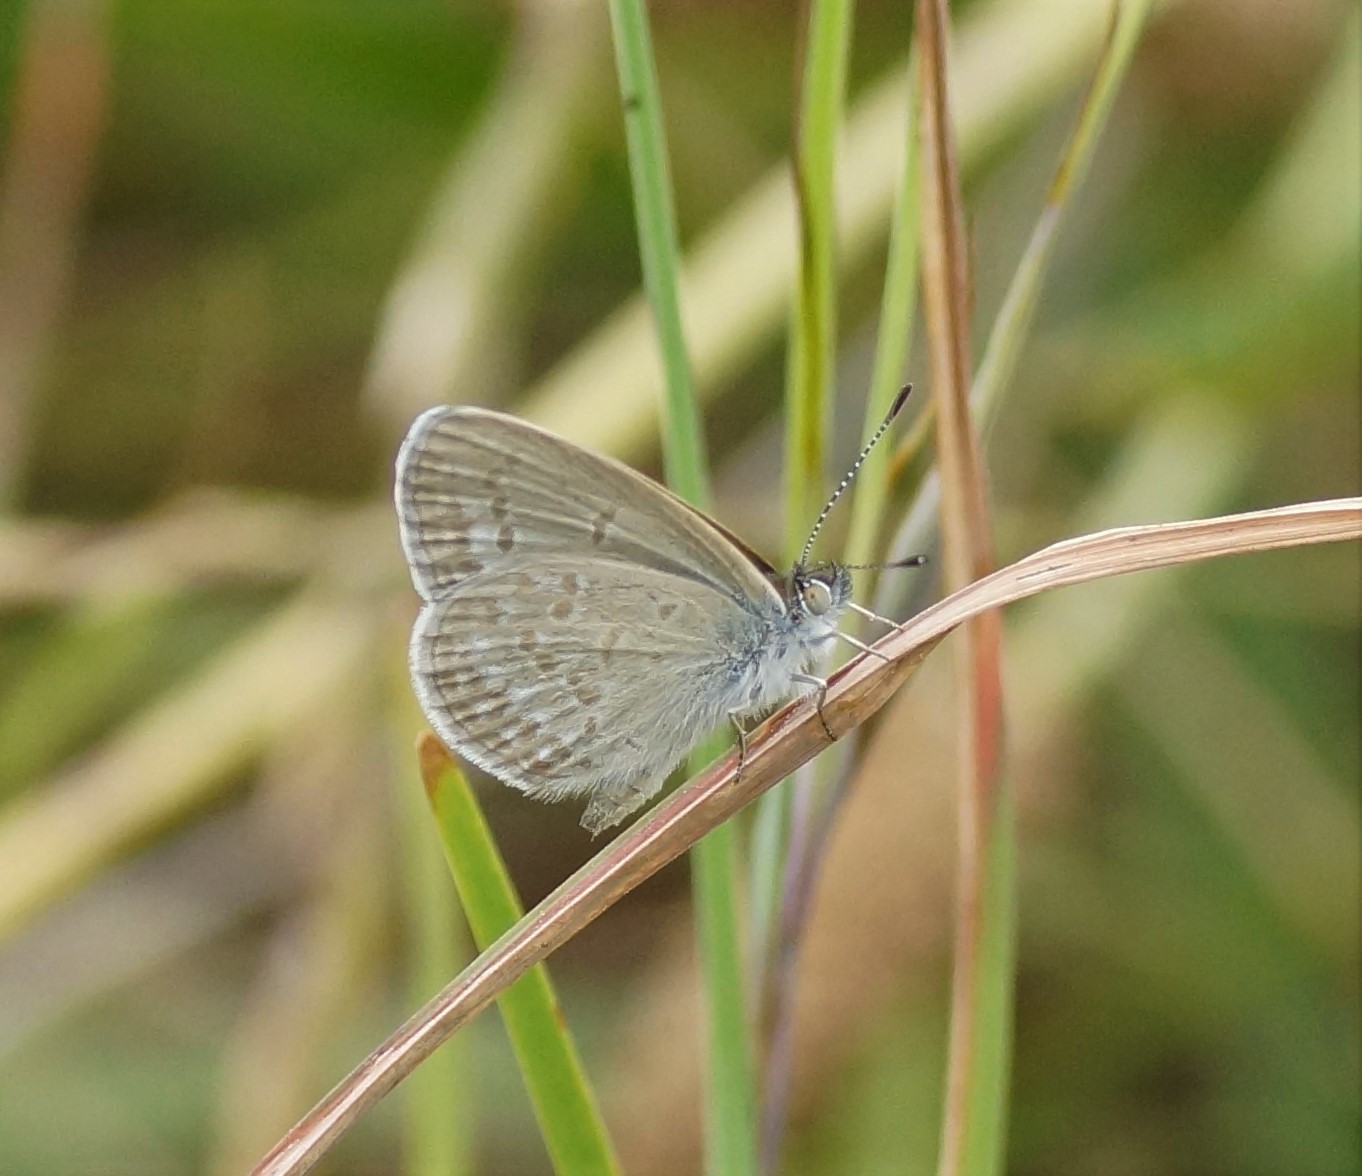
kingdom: Animalia
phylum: Arthropoda
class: Insecta
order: Lepidoptera
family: Lycaenidae
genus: Zizina
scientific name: Zizina labradus
